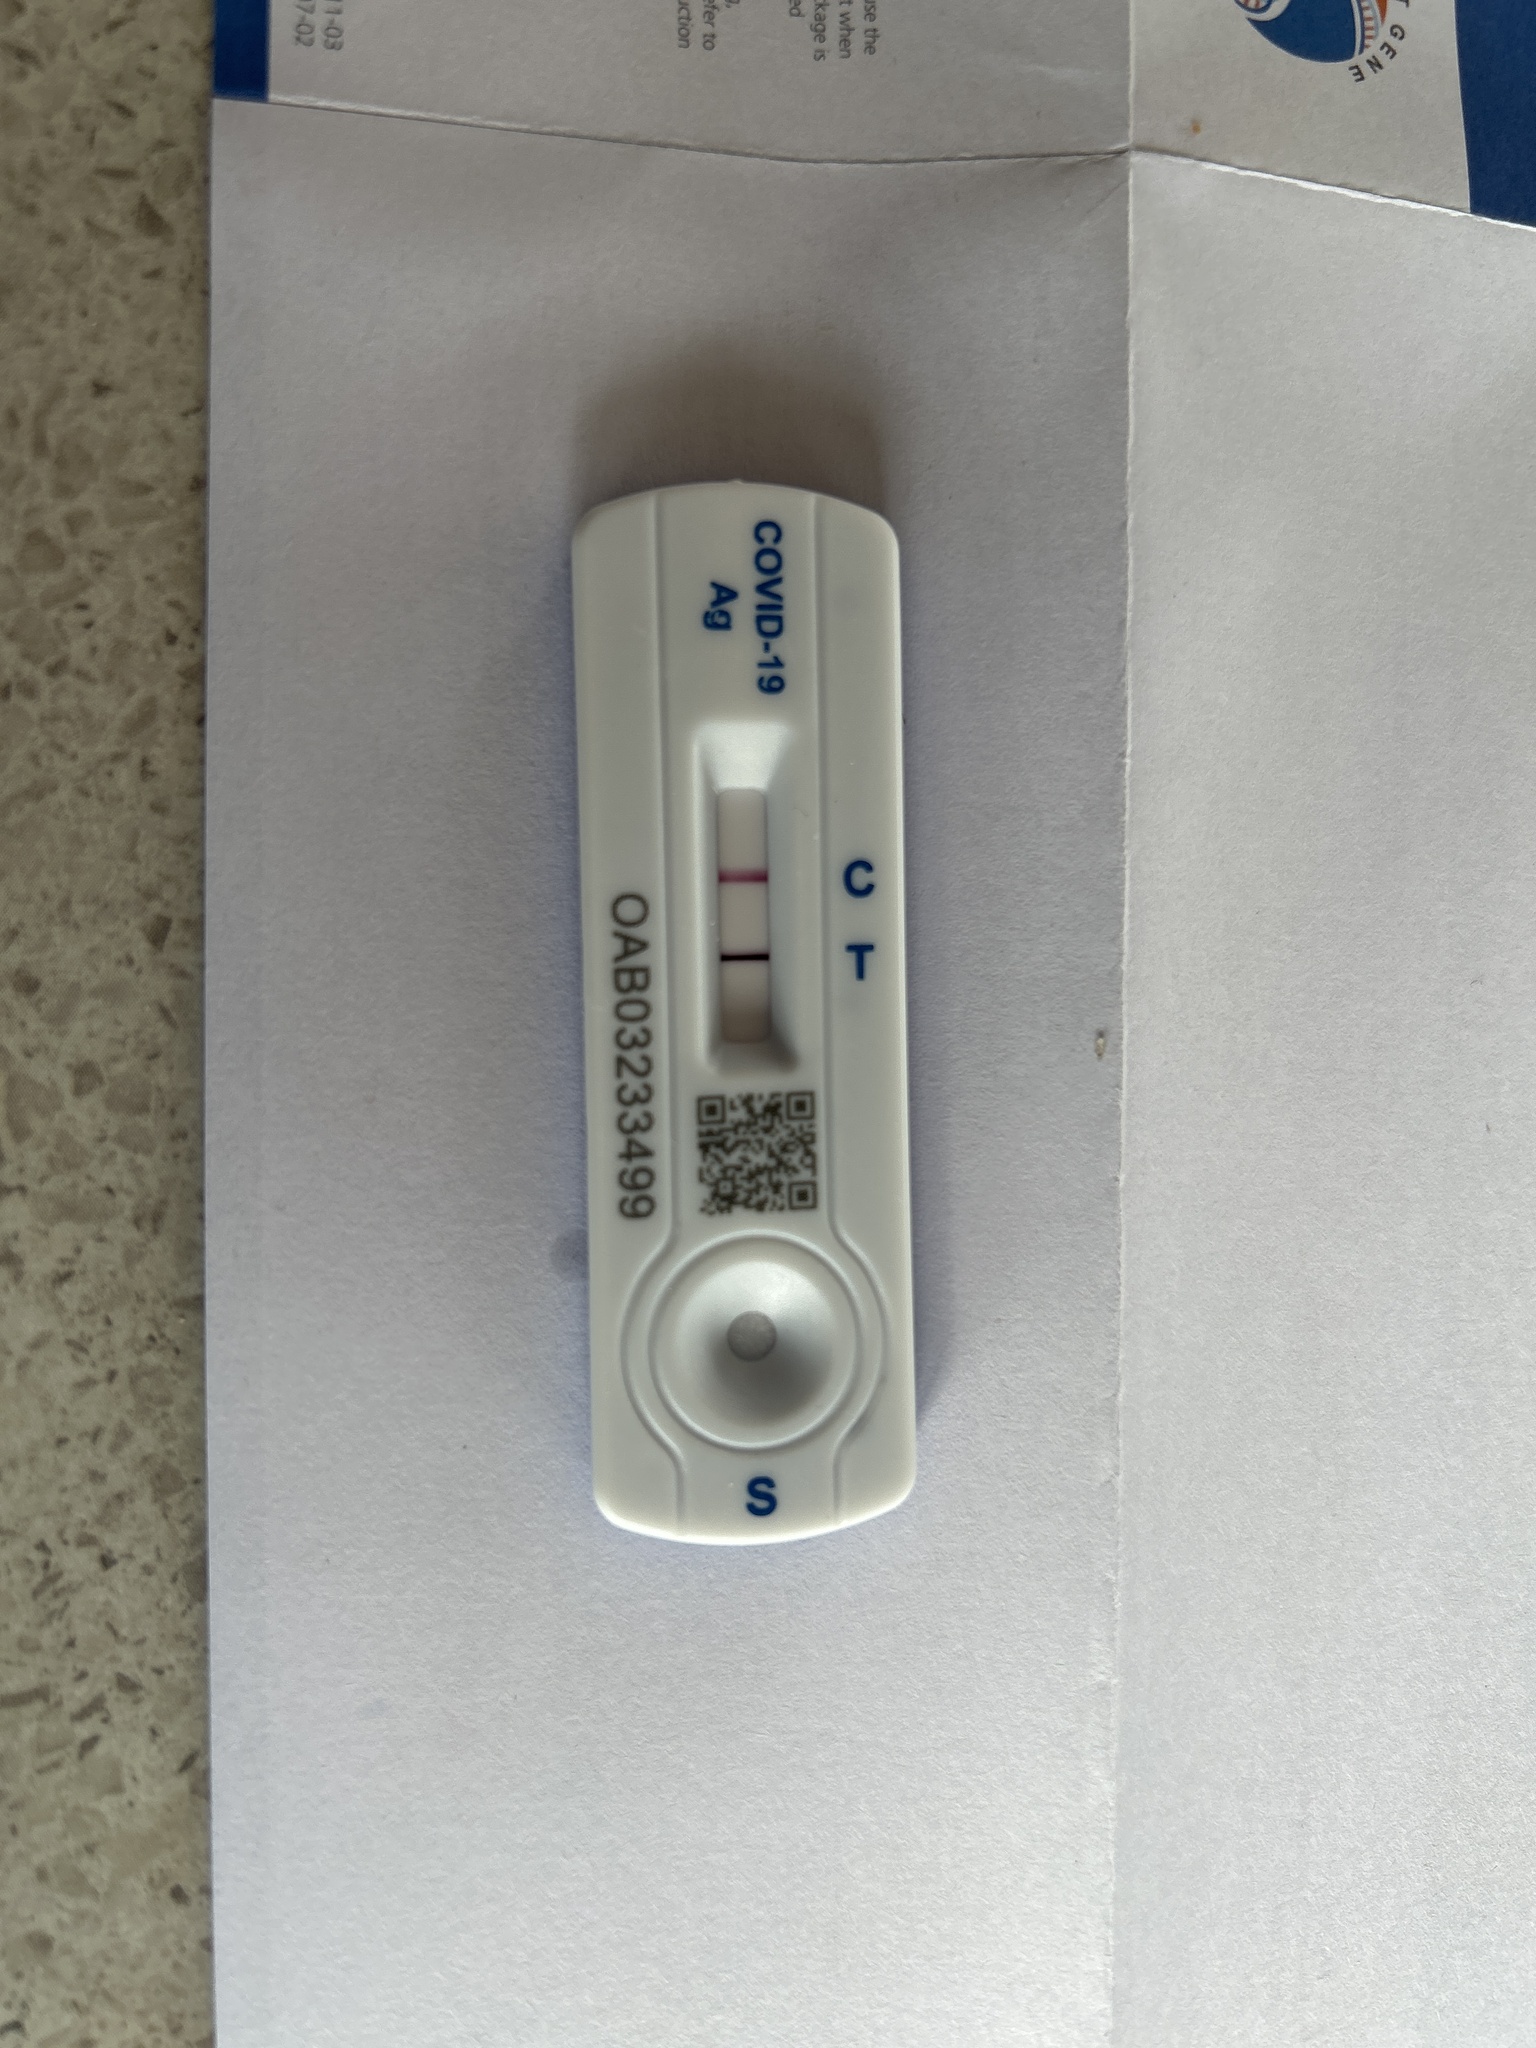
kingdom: Viruses
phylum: Pisuviricota
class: Pisoniviricetes
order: Nidovirales
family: Coronaviridae
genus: Betacoronavirus
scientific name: Betacoronavirus Severe acute respiratory syndrome-related coronavirus
